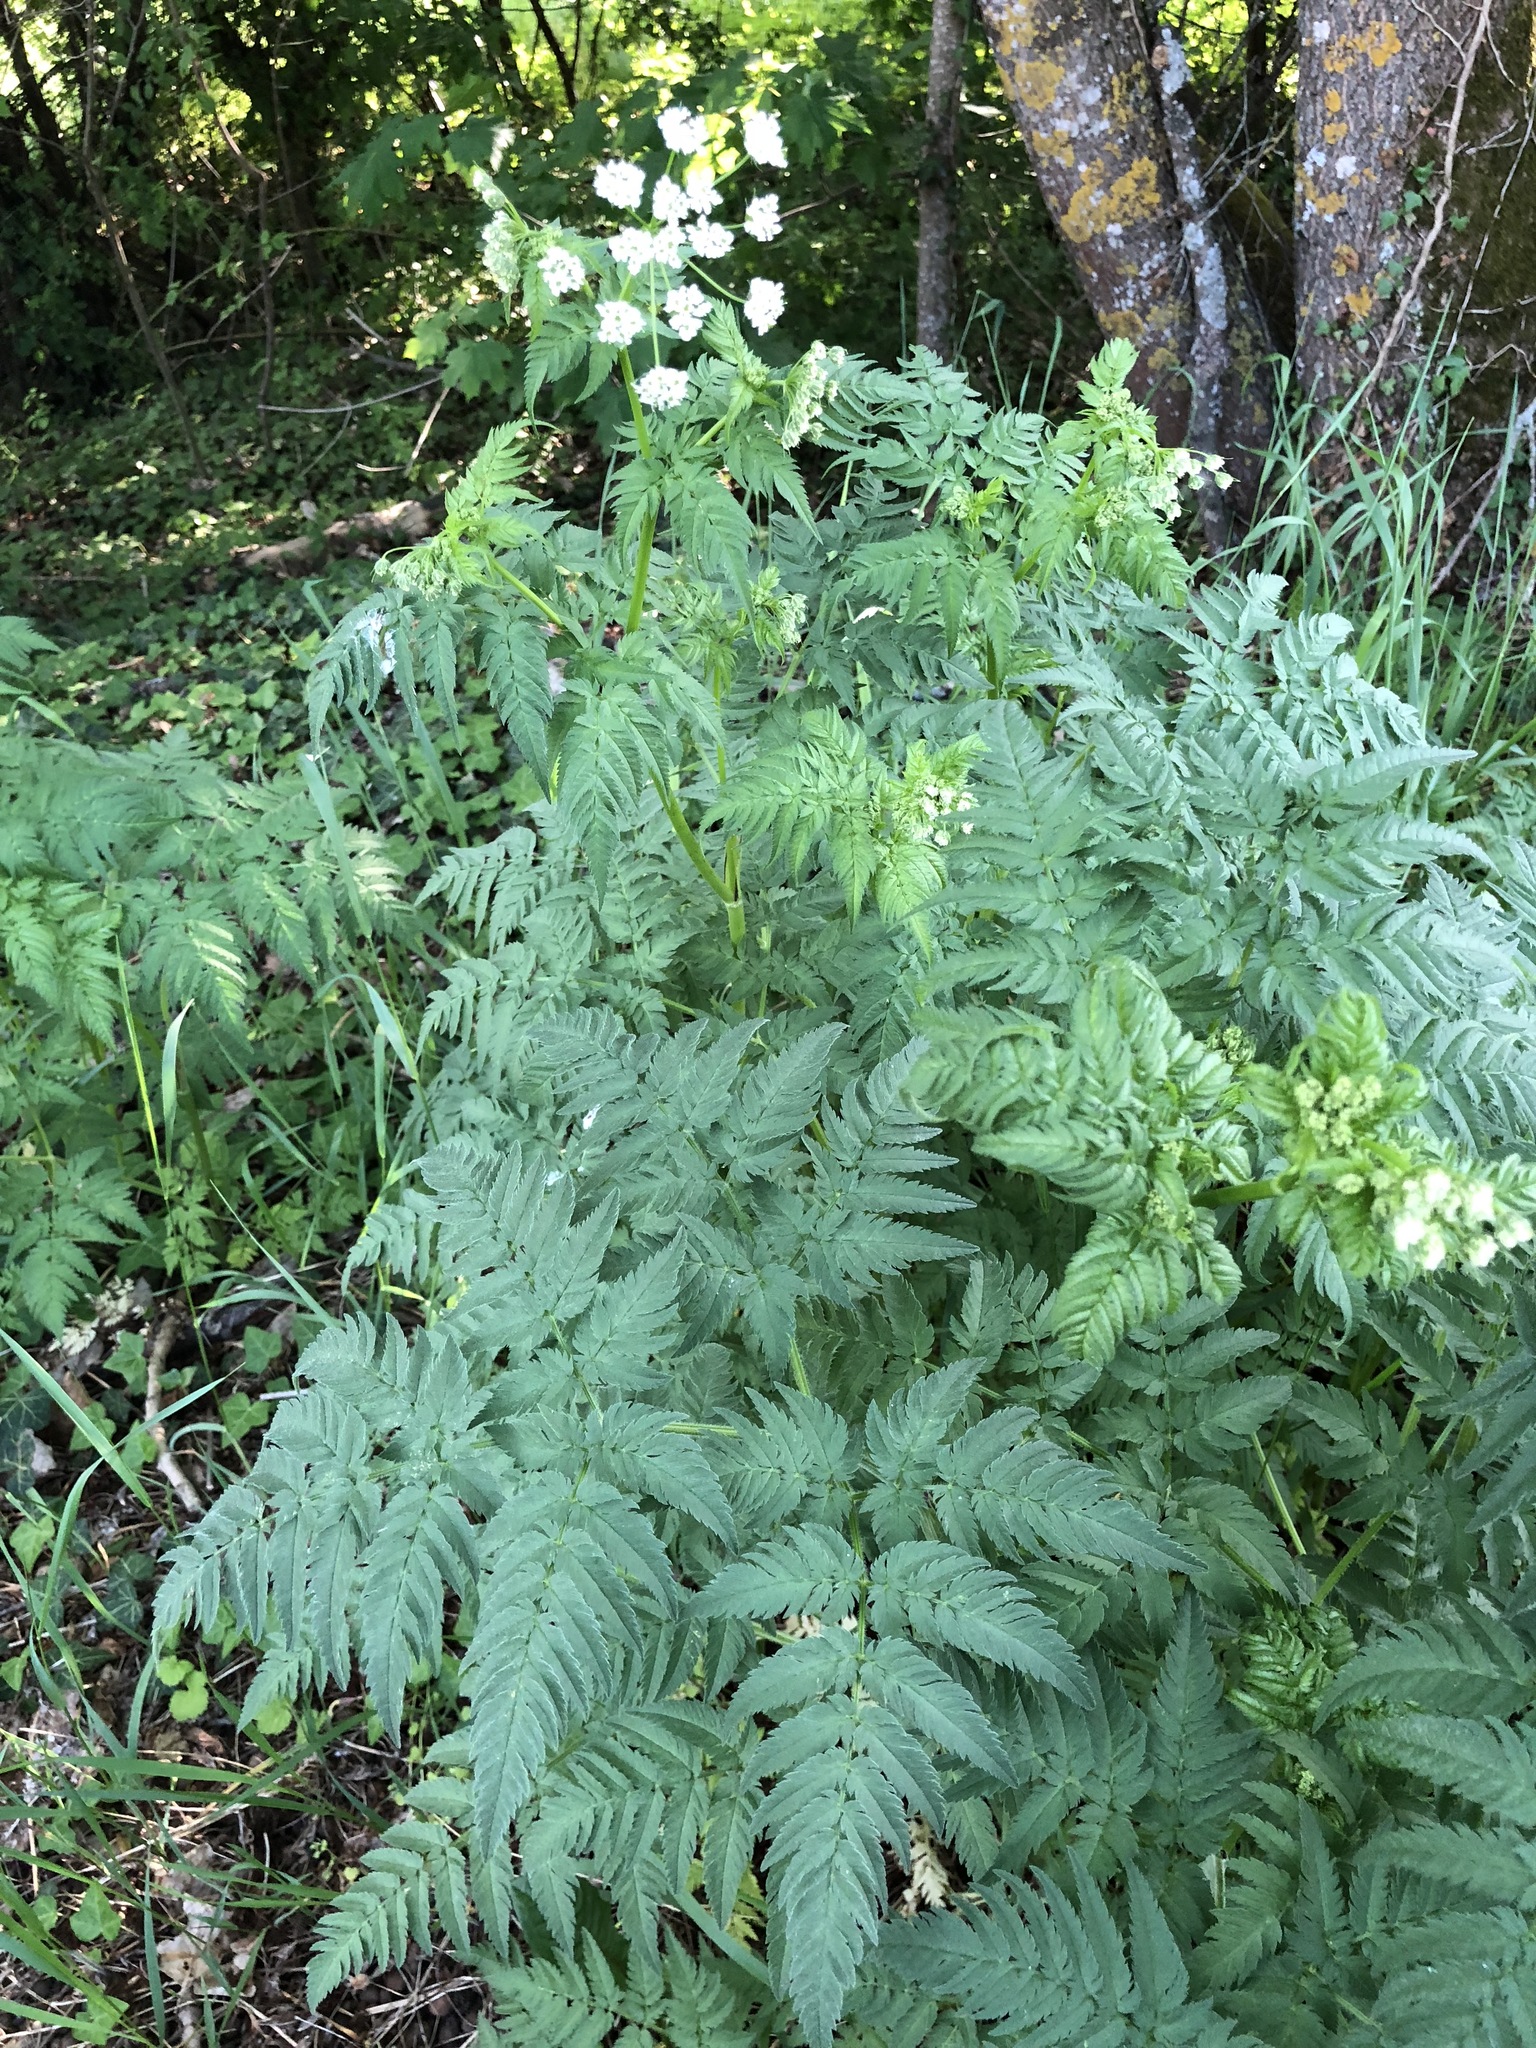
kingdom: Plantae
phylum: Tracheophyta
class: Magnoliopsida
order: Apiales
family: Apiaceae
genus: Chaerophyllum
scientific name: Chaerophyllum aureum
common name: Golden chervil
